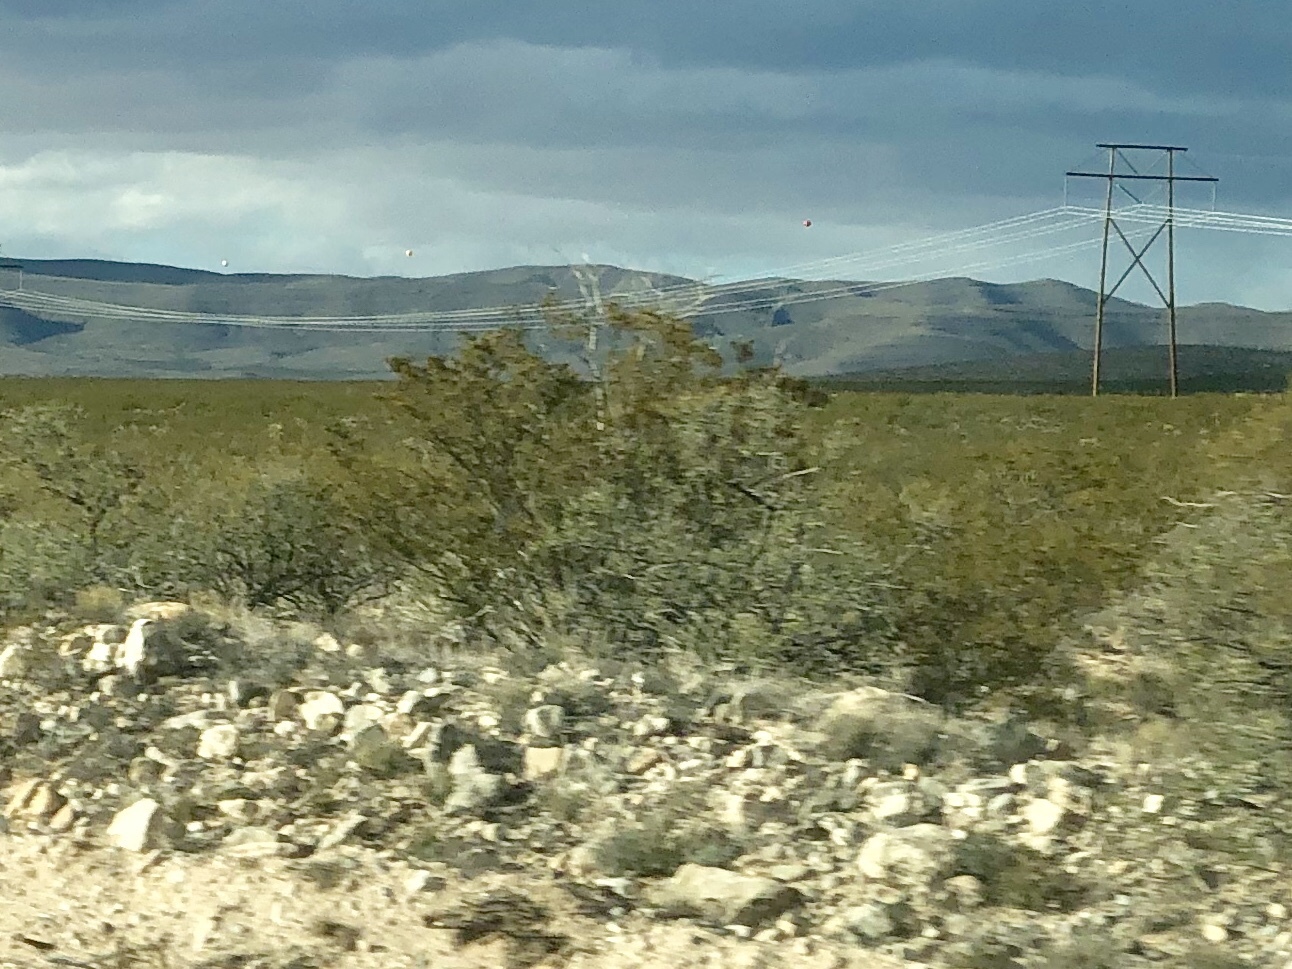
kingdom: Plantae
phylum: Tracheophyta
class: Magnoliopsida
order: Zygophyllales
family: Zygophyllaceae
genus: Larrea
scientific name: Larrea tridentata
